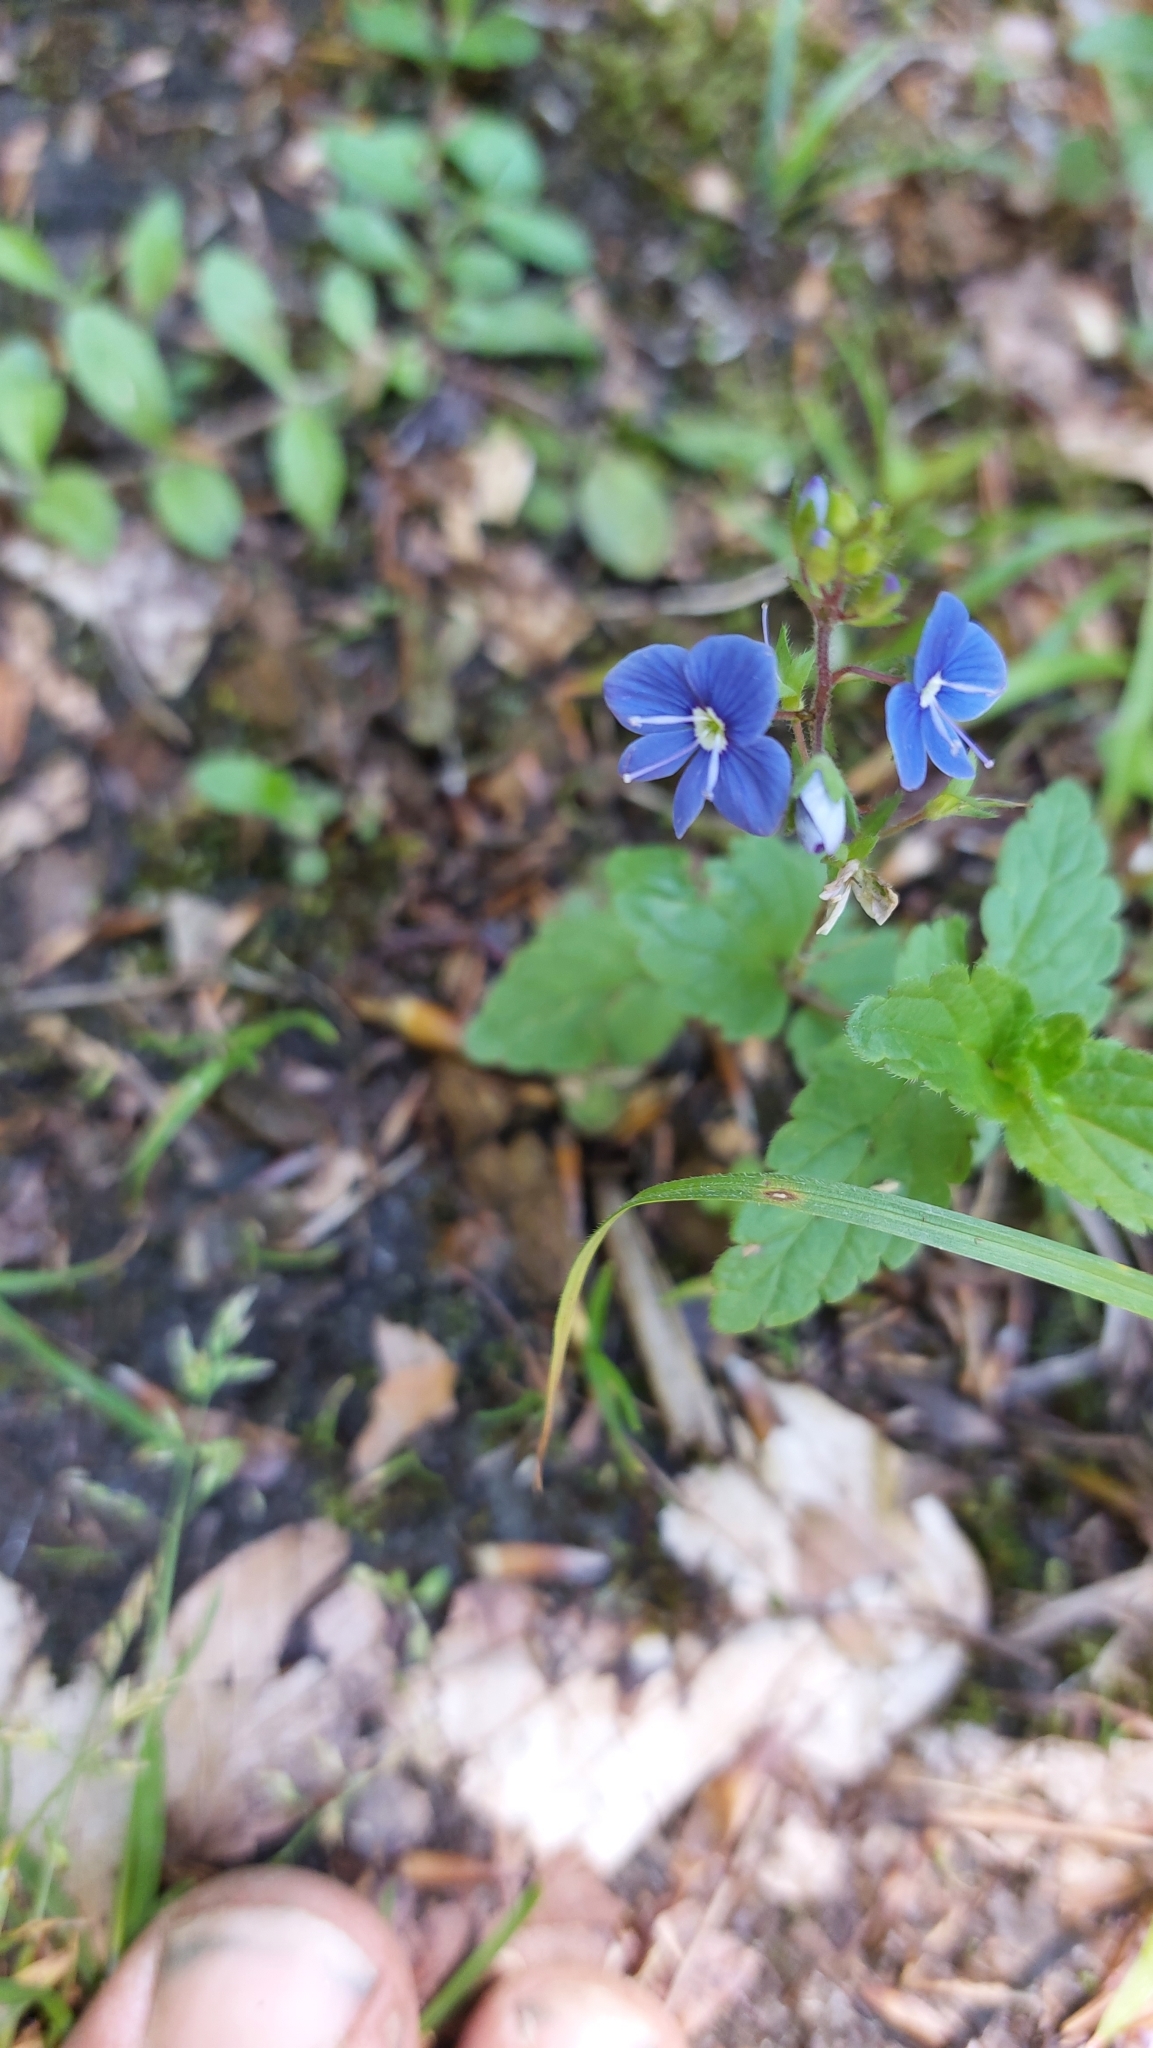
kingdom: Plantae
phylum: Tracheophyta
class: Magnoliopsida
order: Lamiales
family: Plantaginaceae
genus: Veronica
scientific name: Veronica chamaedrys
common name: Germander speedwell
